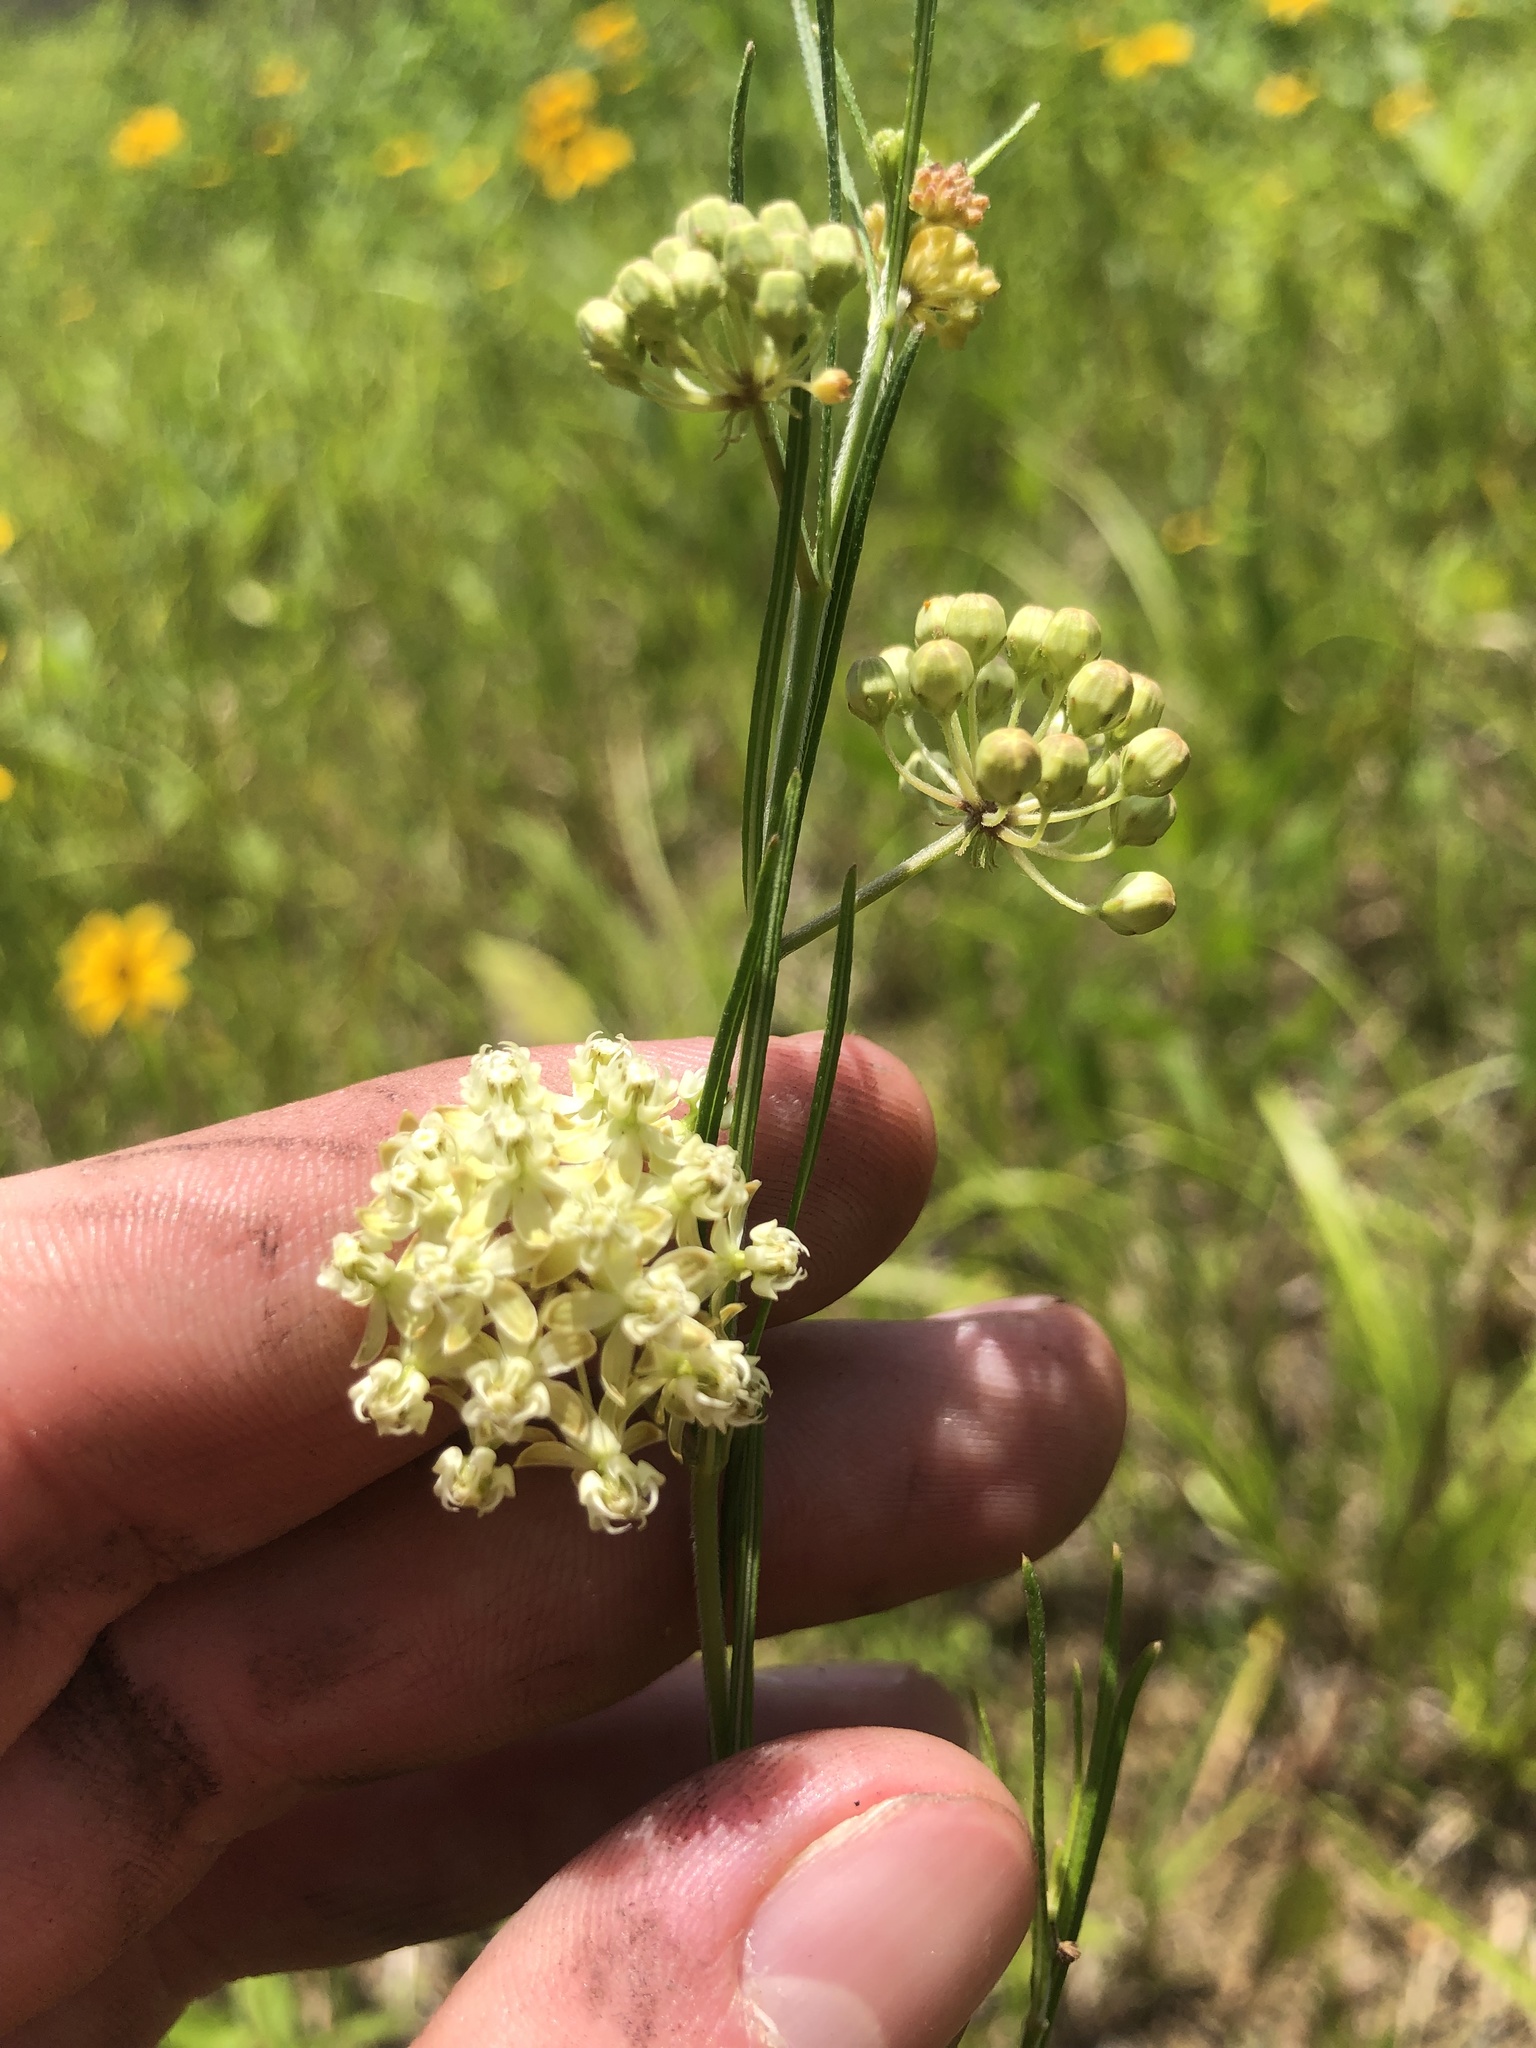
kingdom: Plantae
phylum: Tracheophyta
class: Magnoliopsida
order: Gentianales
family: Apocynaceae
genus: Asclepias
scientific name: Asclepias verticillata
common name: Eastern whorled milkweed
